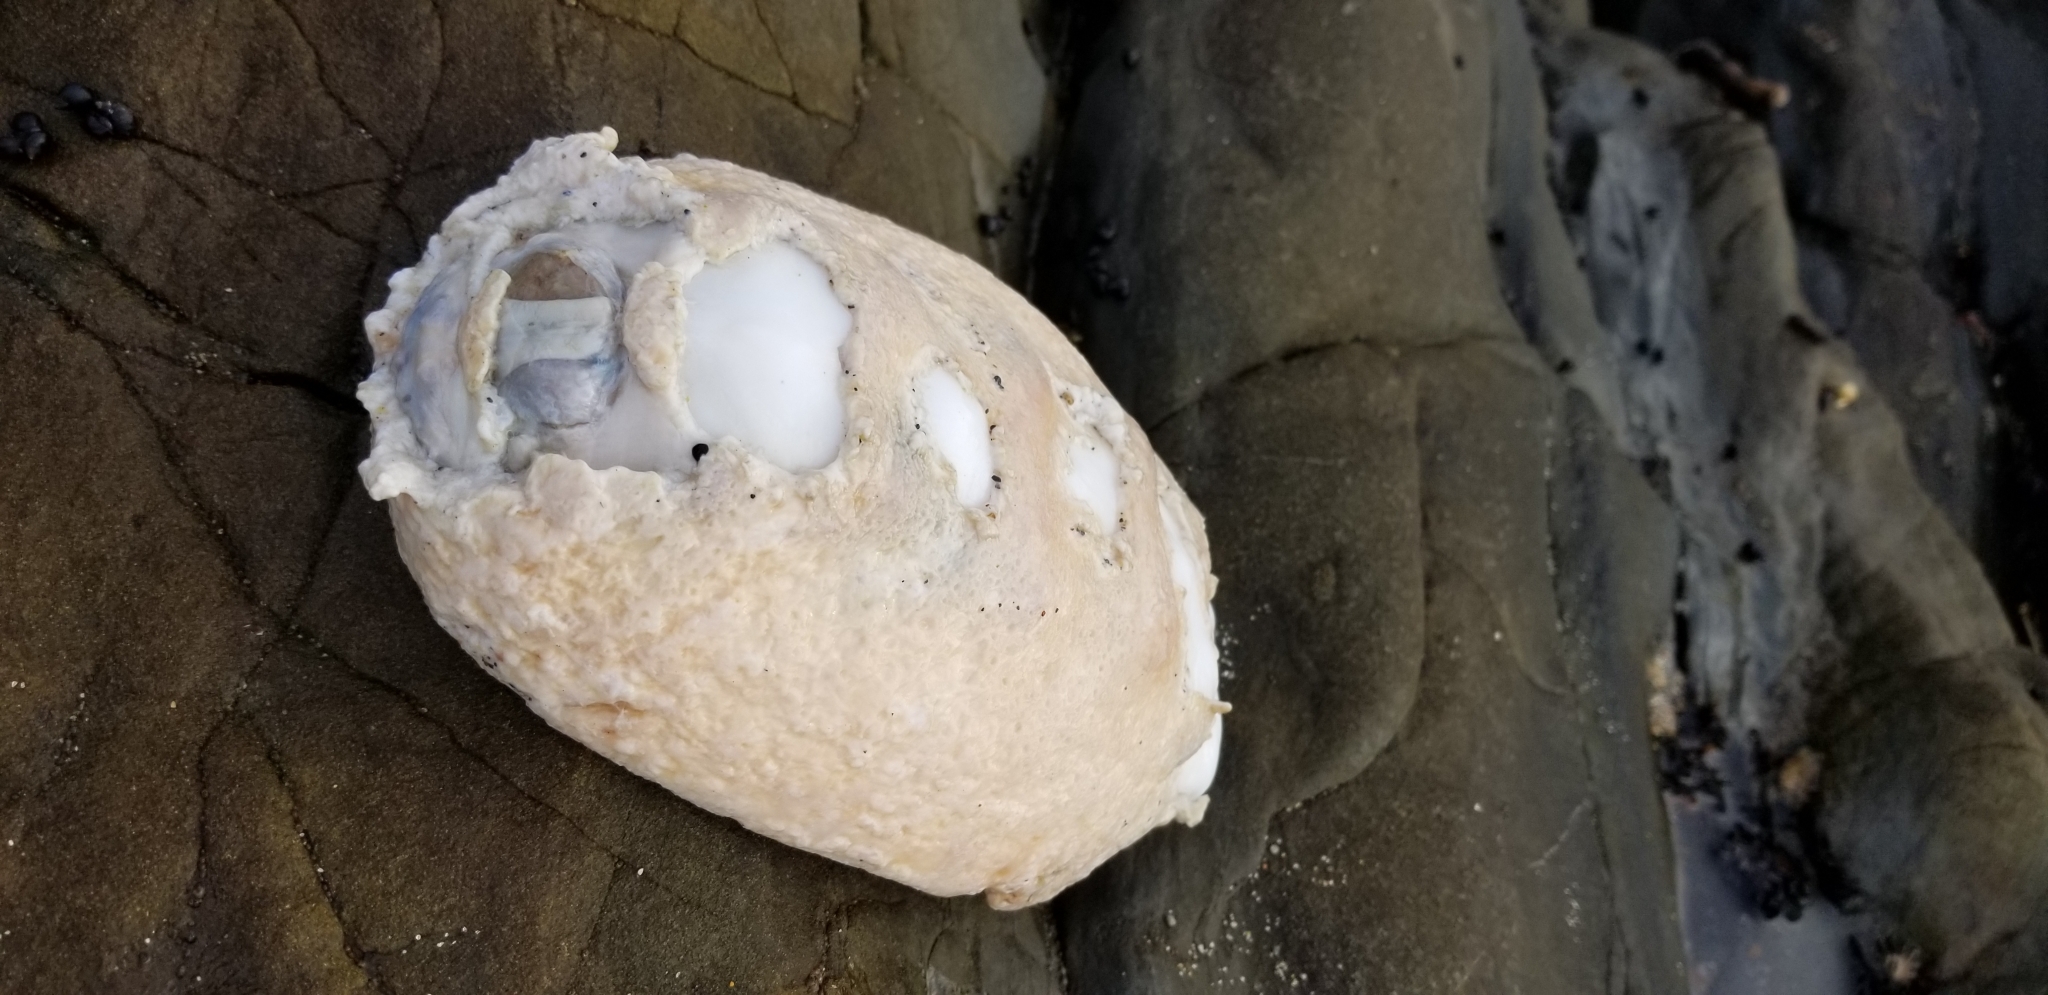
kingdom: Animalia
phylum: Mollusca
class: Polyplacophora
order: Chitonida
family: Acanthochitonidae
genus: Cryptochiton
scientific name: Cryptochiton stelleri
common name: Giant pacific chiton
